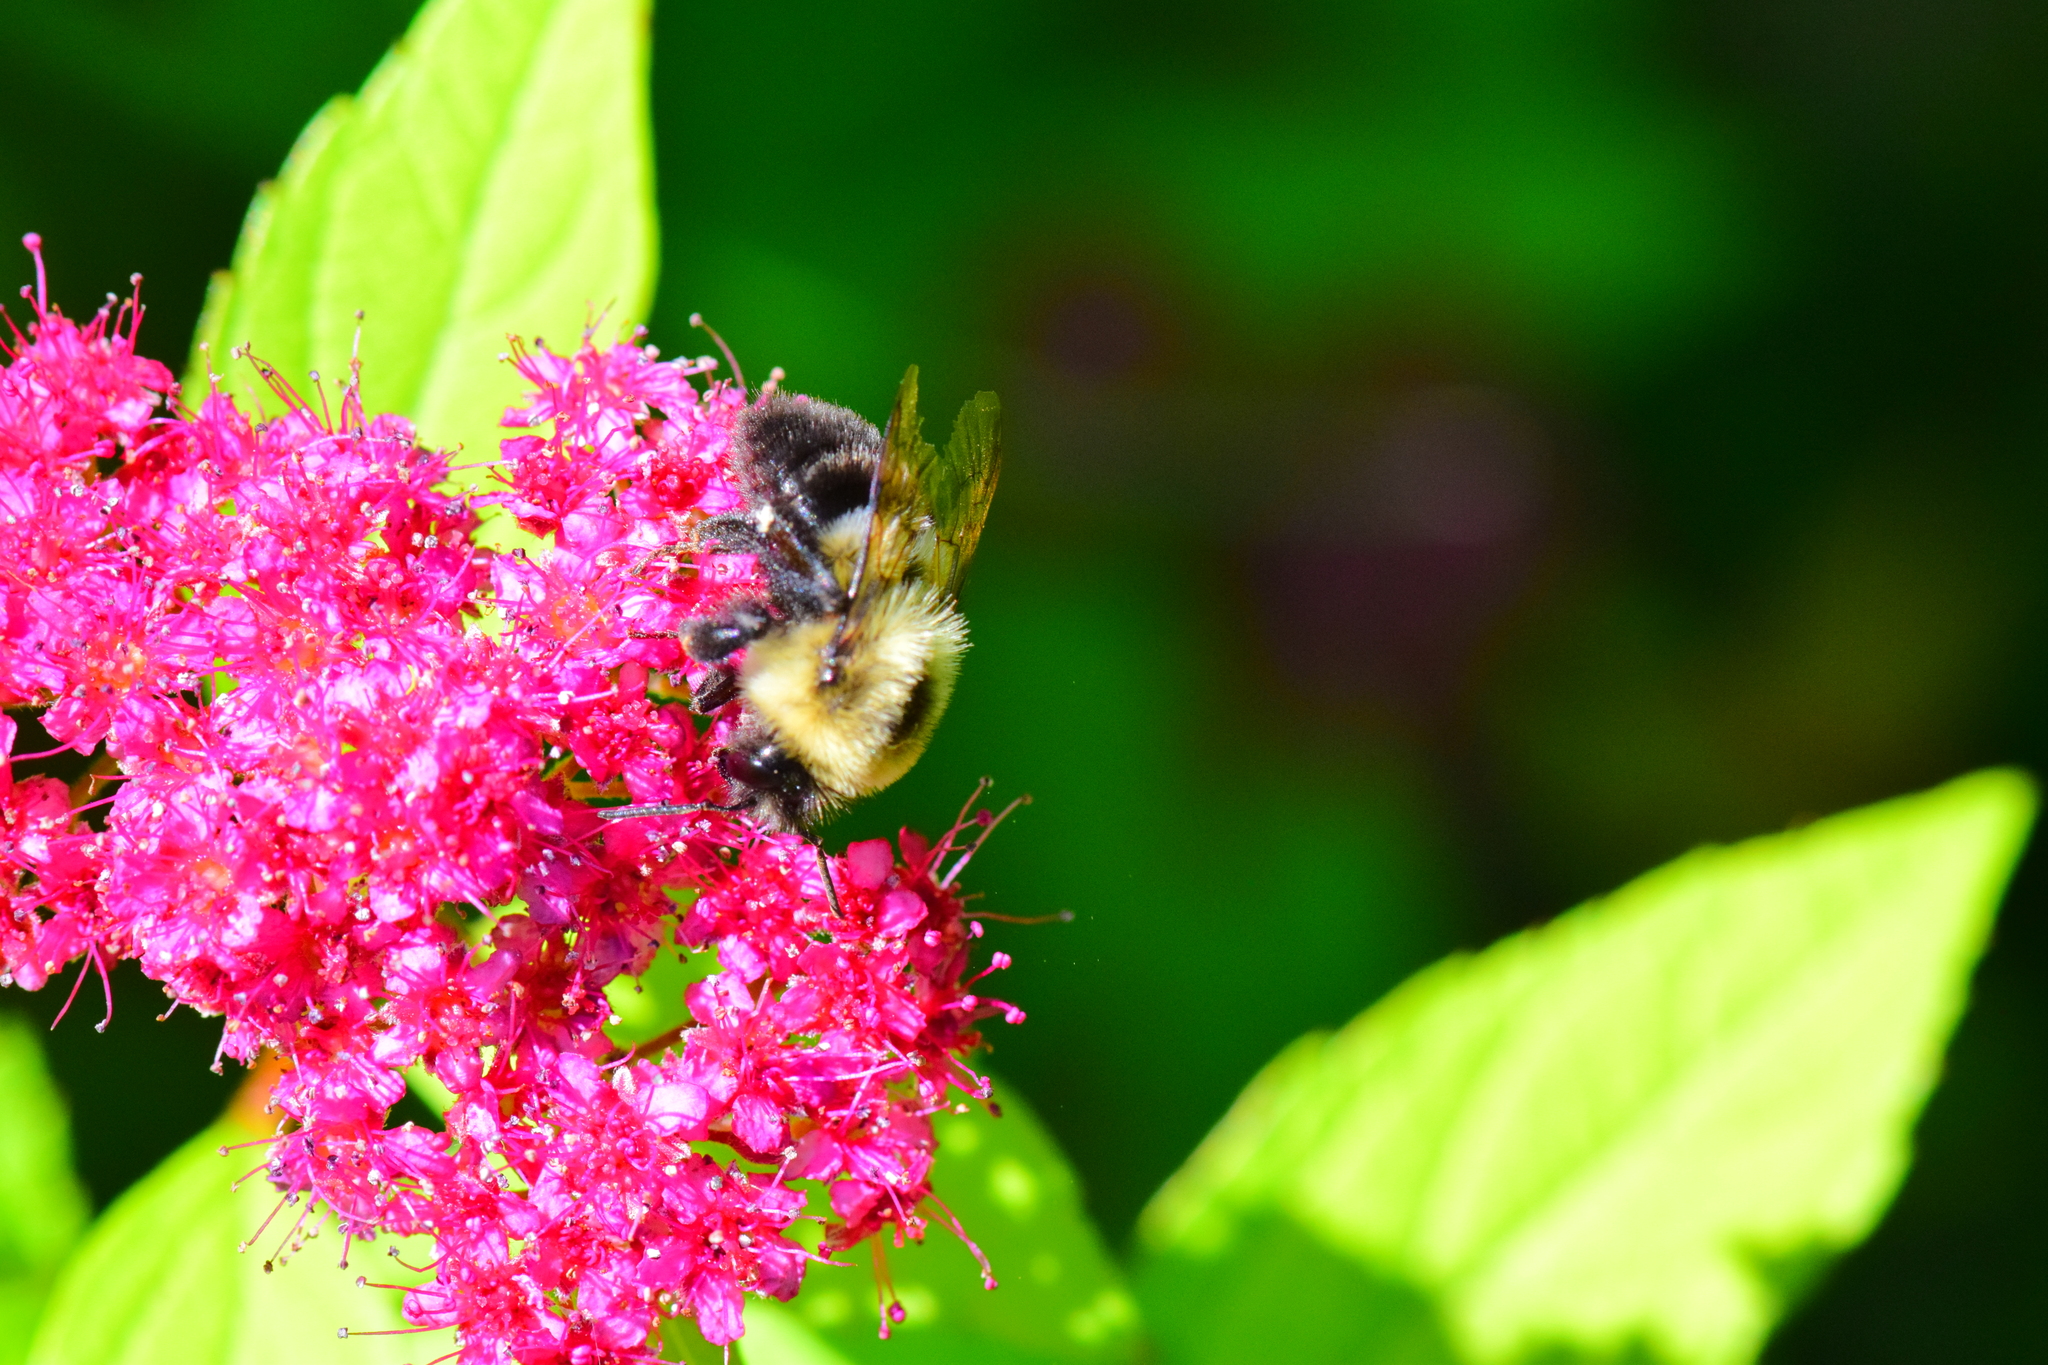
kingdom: Animalia
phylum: Arthropoda
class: Insecta
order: Hymenoptera
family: Apidae
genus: Bombus
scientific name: Bombus impatiens
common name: Common eastern bumble bee
